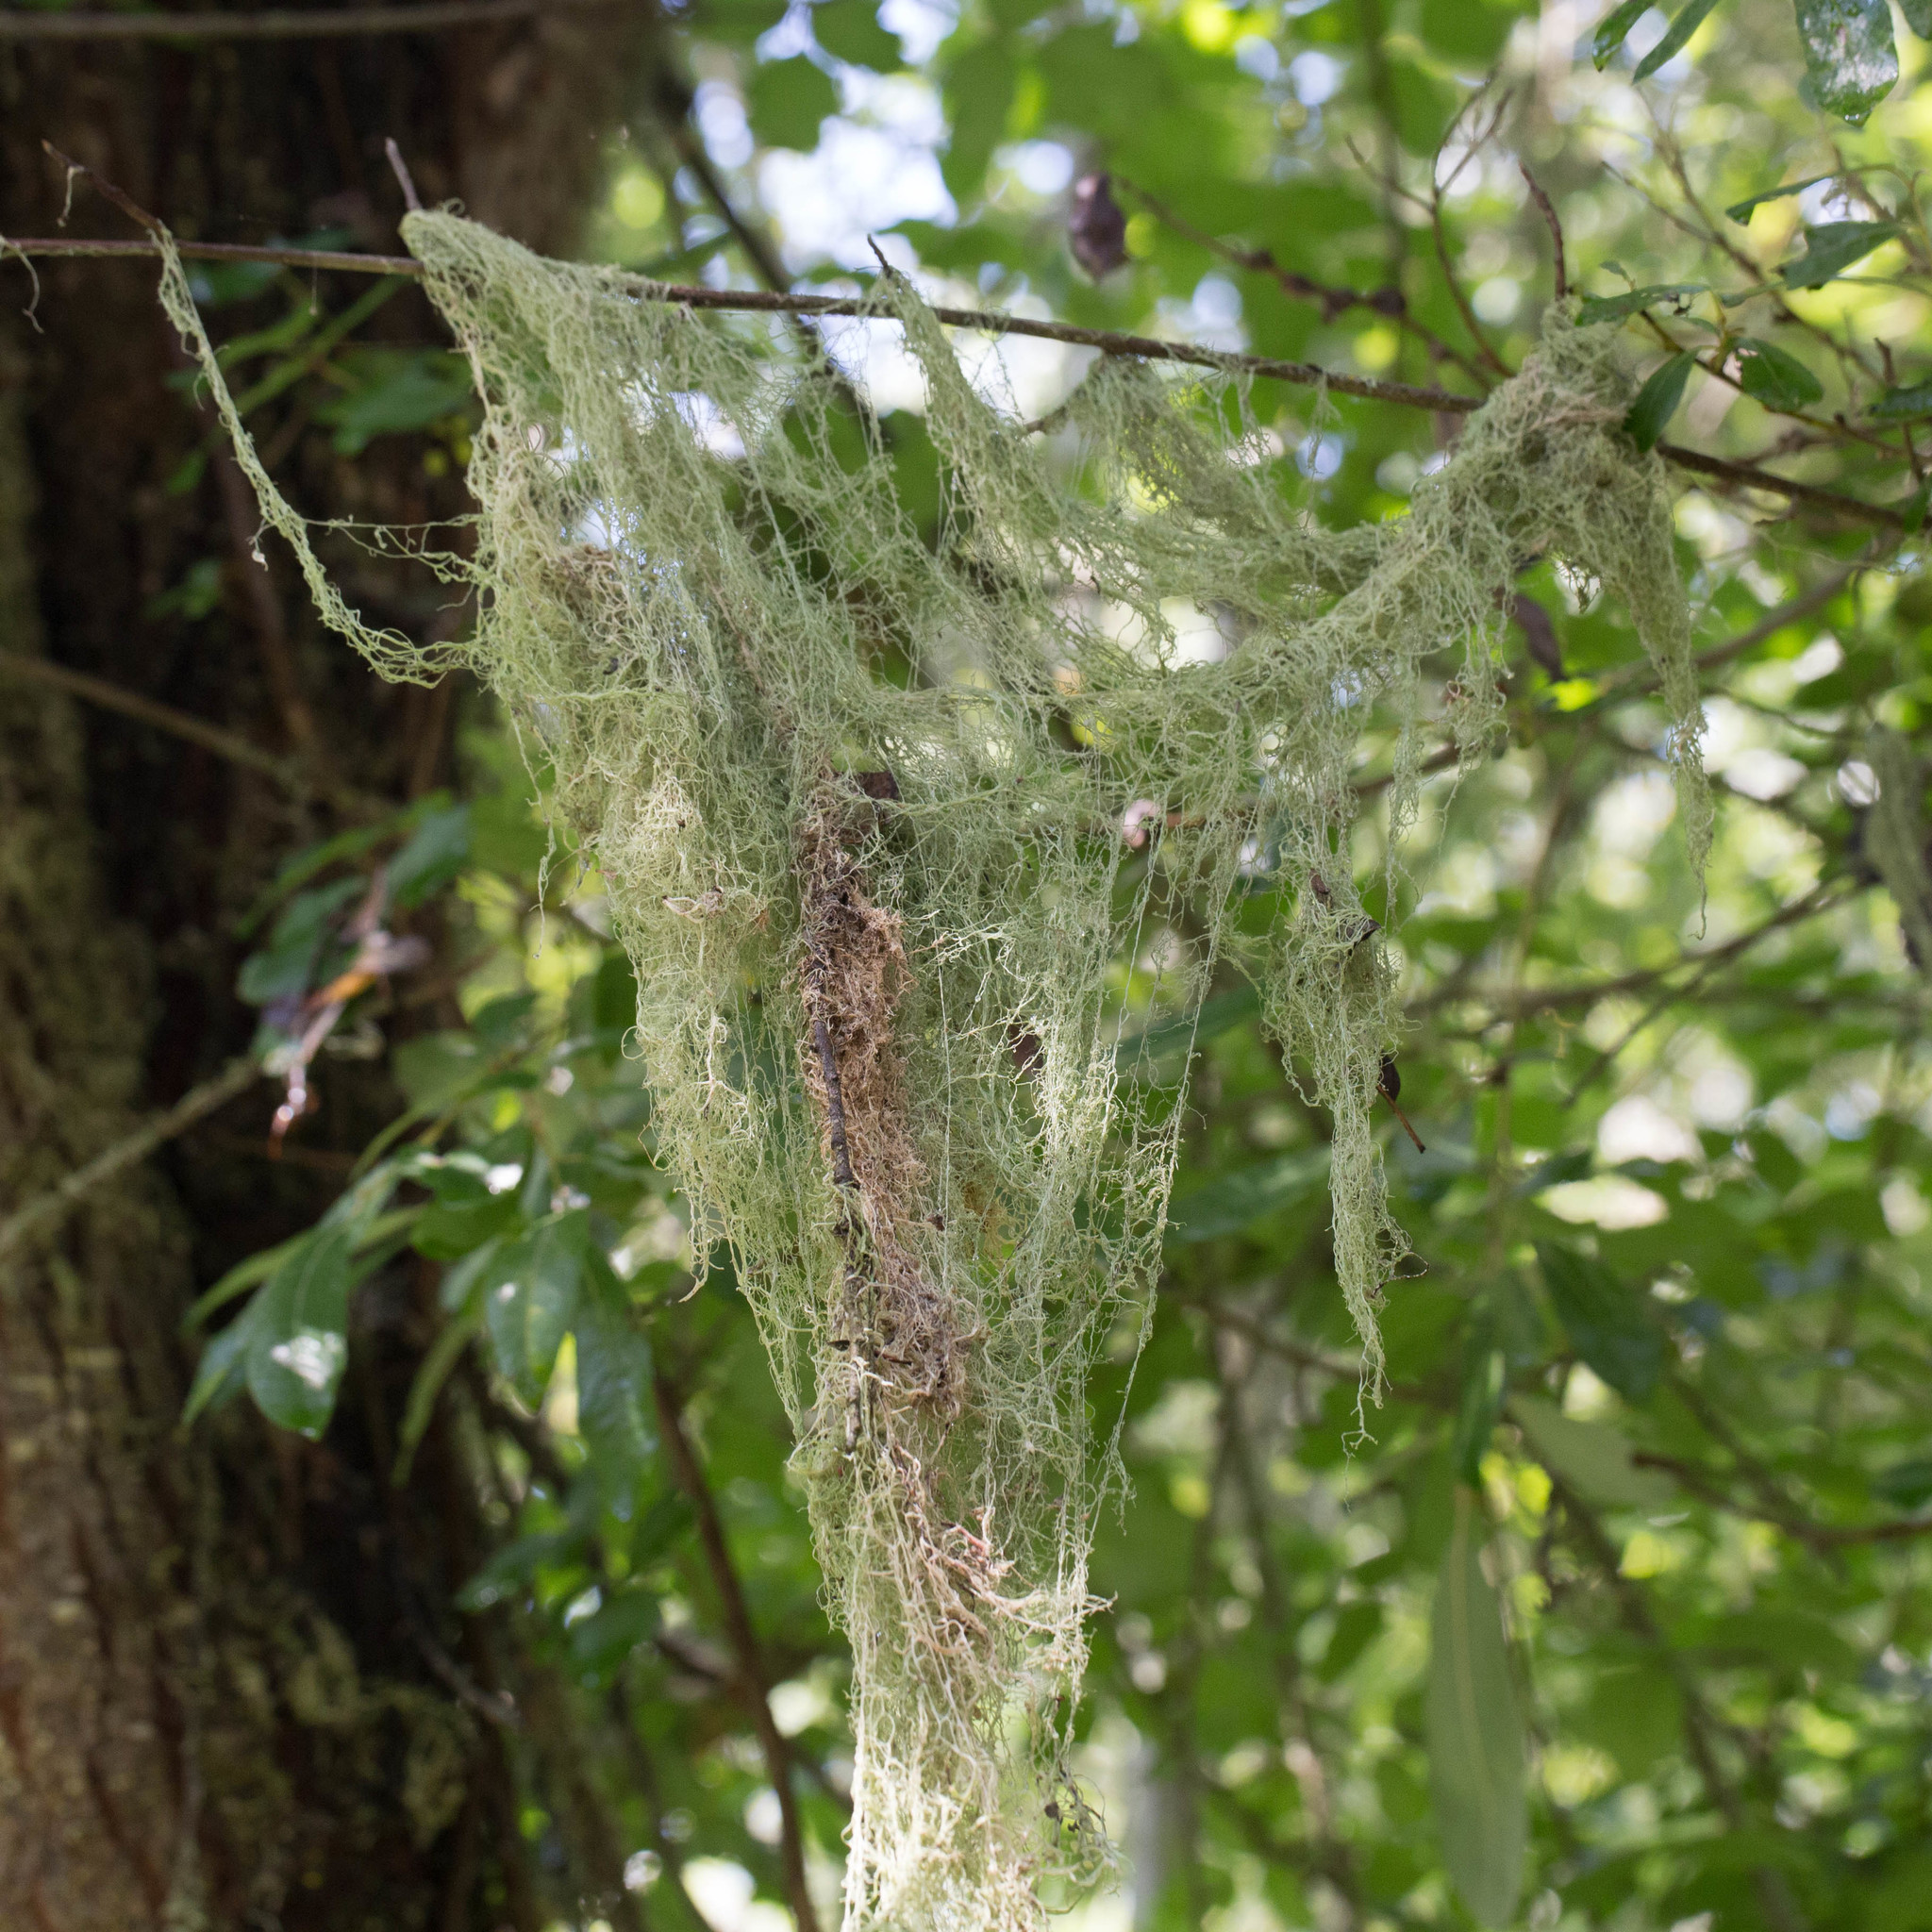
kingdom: Fungi
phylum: Ascomycota
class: Lecanoromycetes
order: Lecanorales
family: Ramalinaceae
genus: Ramalina
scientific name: Ramalina menziesii
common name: Lace lichen
